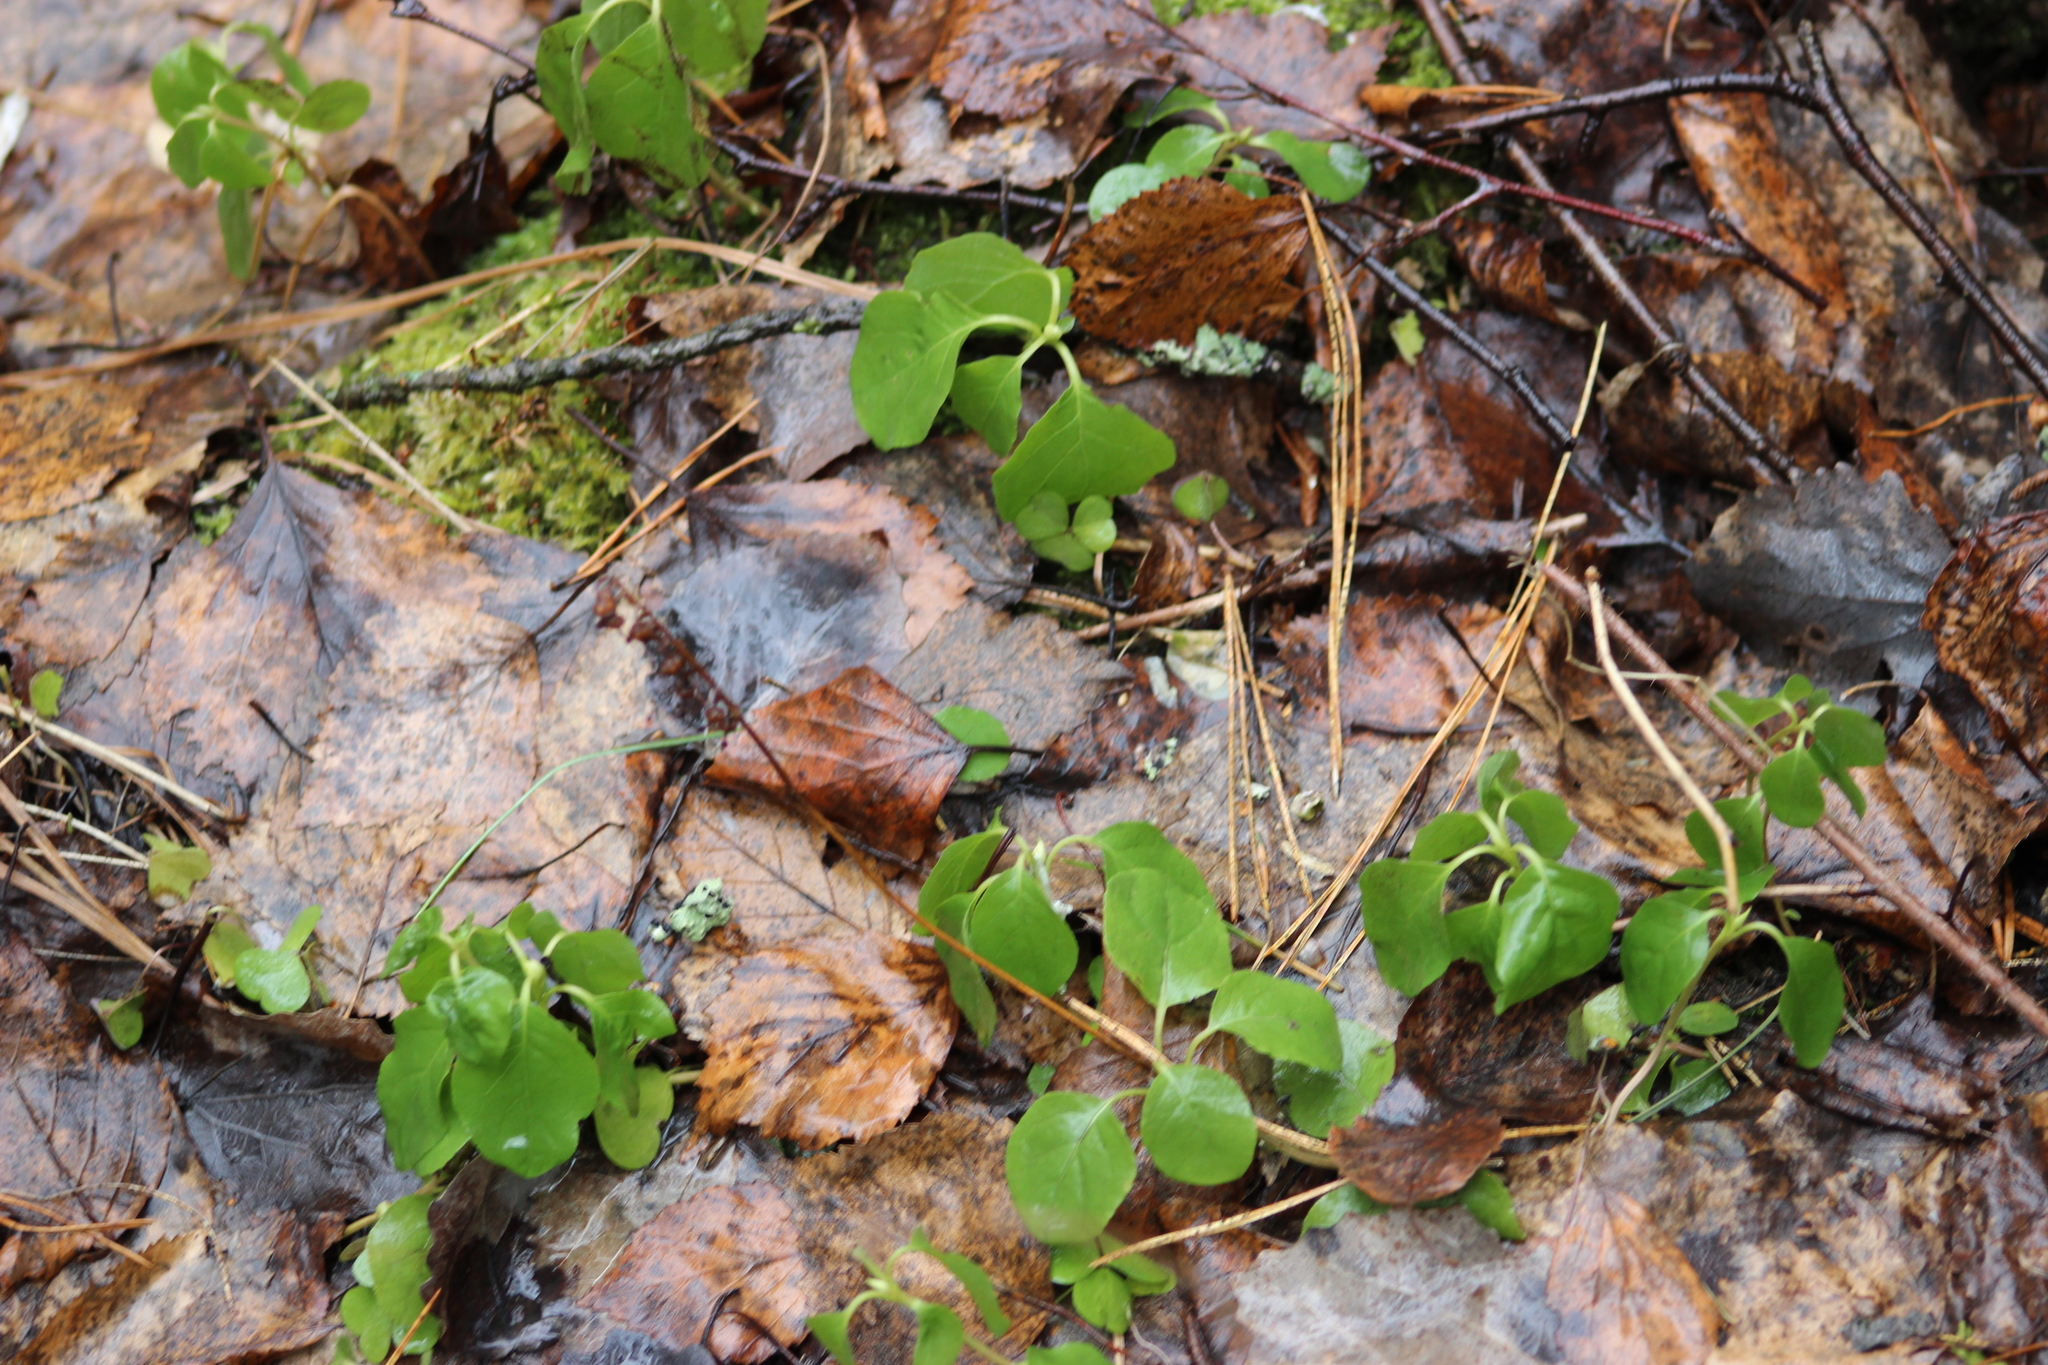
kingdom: Plantae
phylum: Tracheophyta
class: Magnoliopsida
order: Ericales
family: Ericaceae
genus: Orthilia
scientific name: Orthilia secunda
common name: One-sided orthilia
